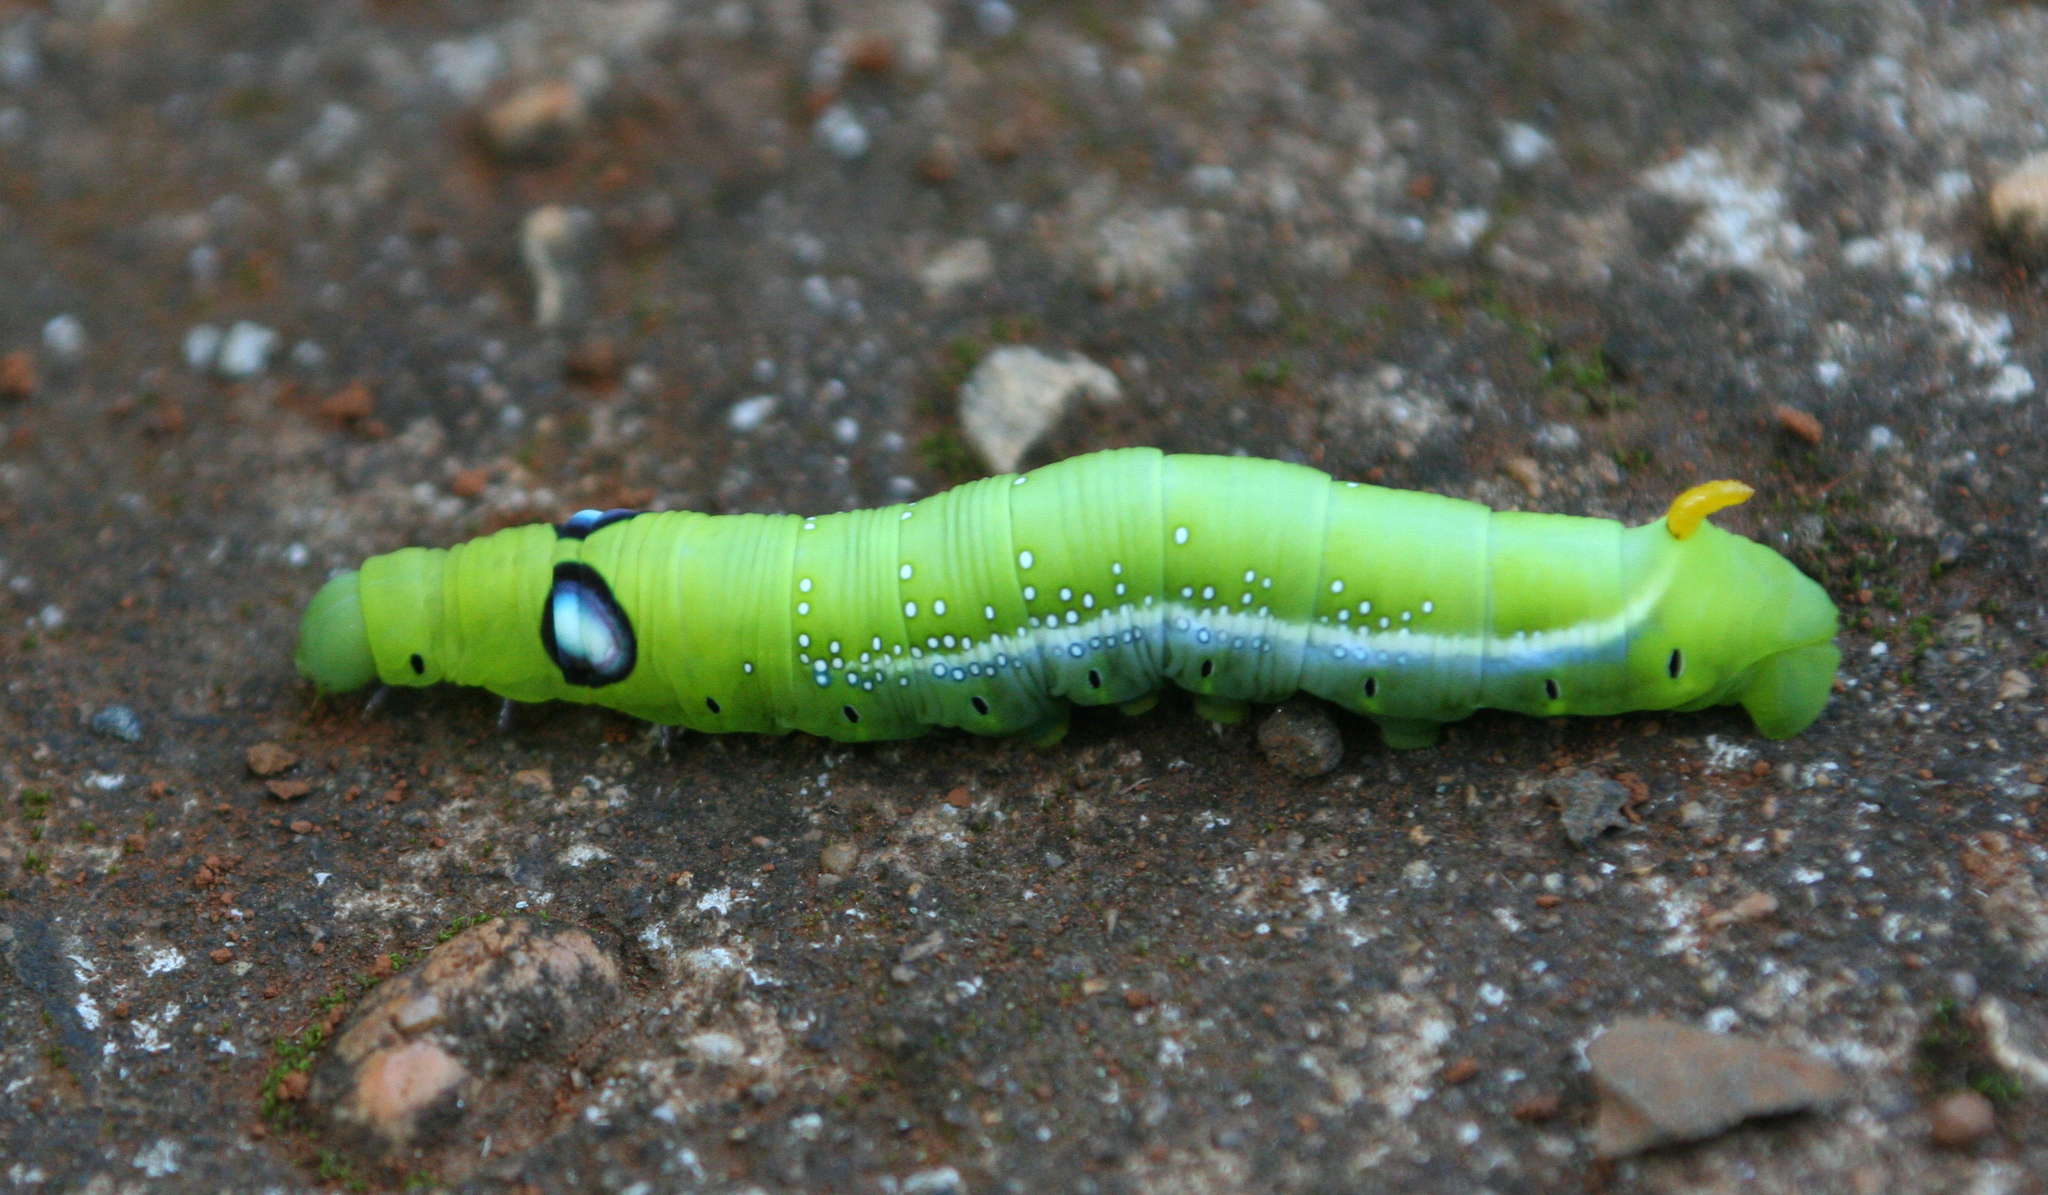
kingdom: Animalia
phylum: Arthropoda
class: Insecta
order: Lepidoptera
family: Sphingidae
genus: Daphnis
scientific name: Daphnis nerii
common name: Oleander hawk-moth
